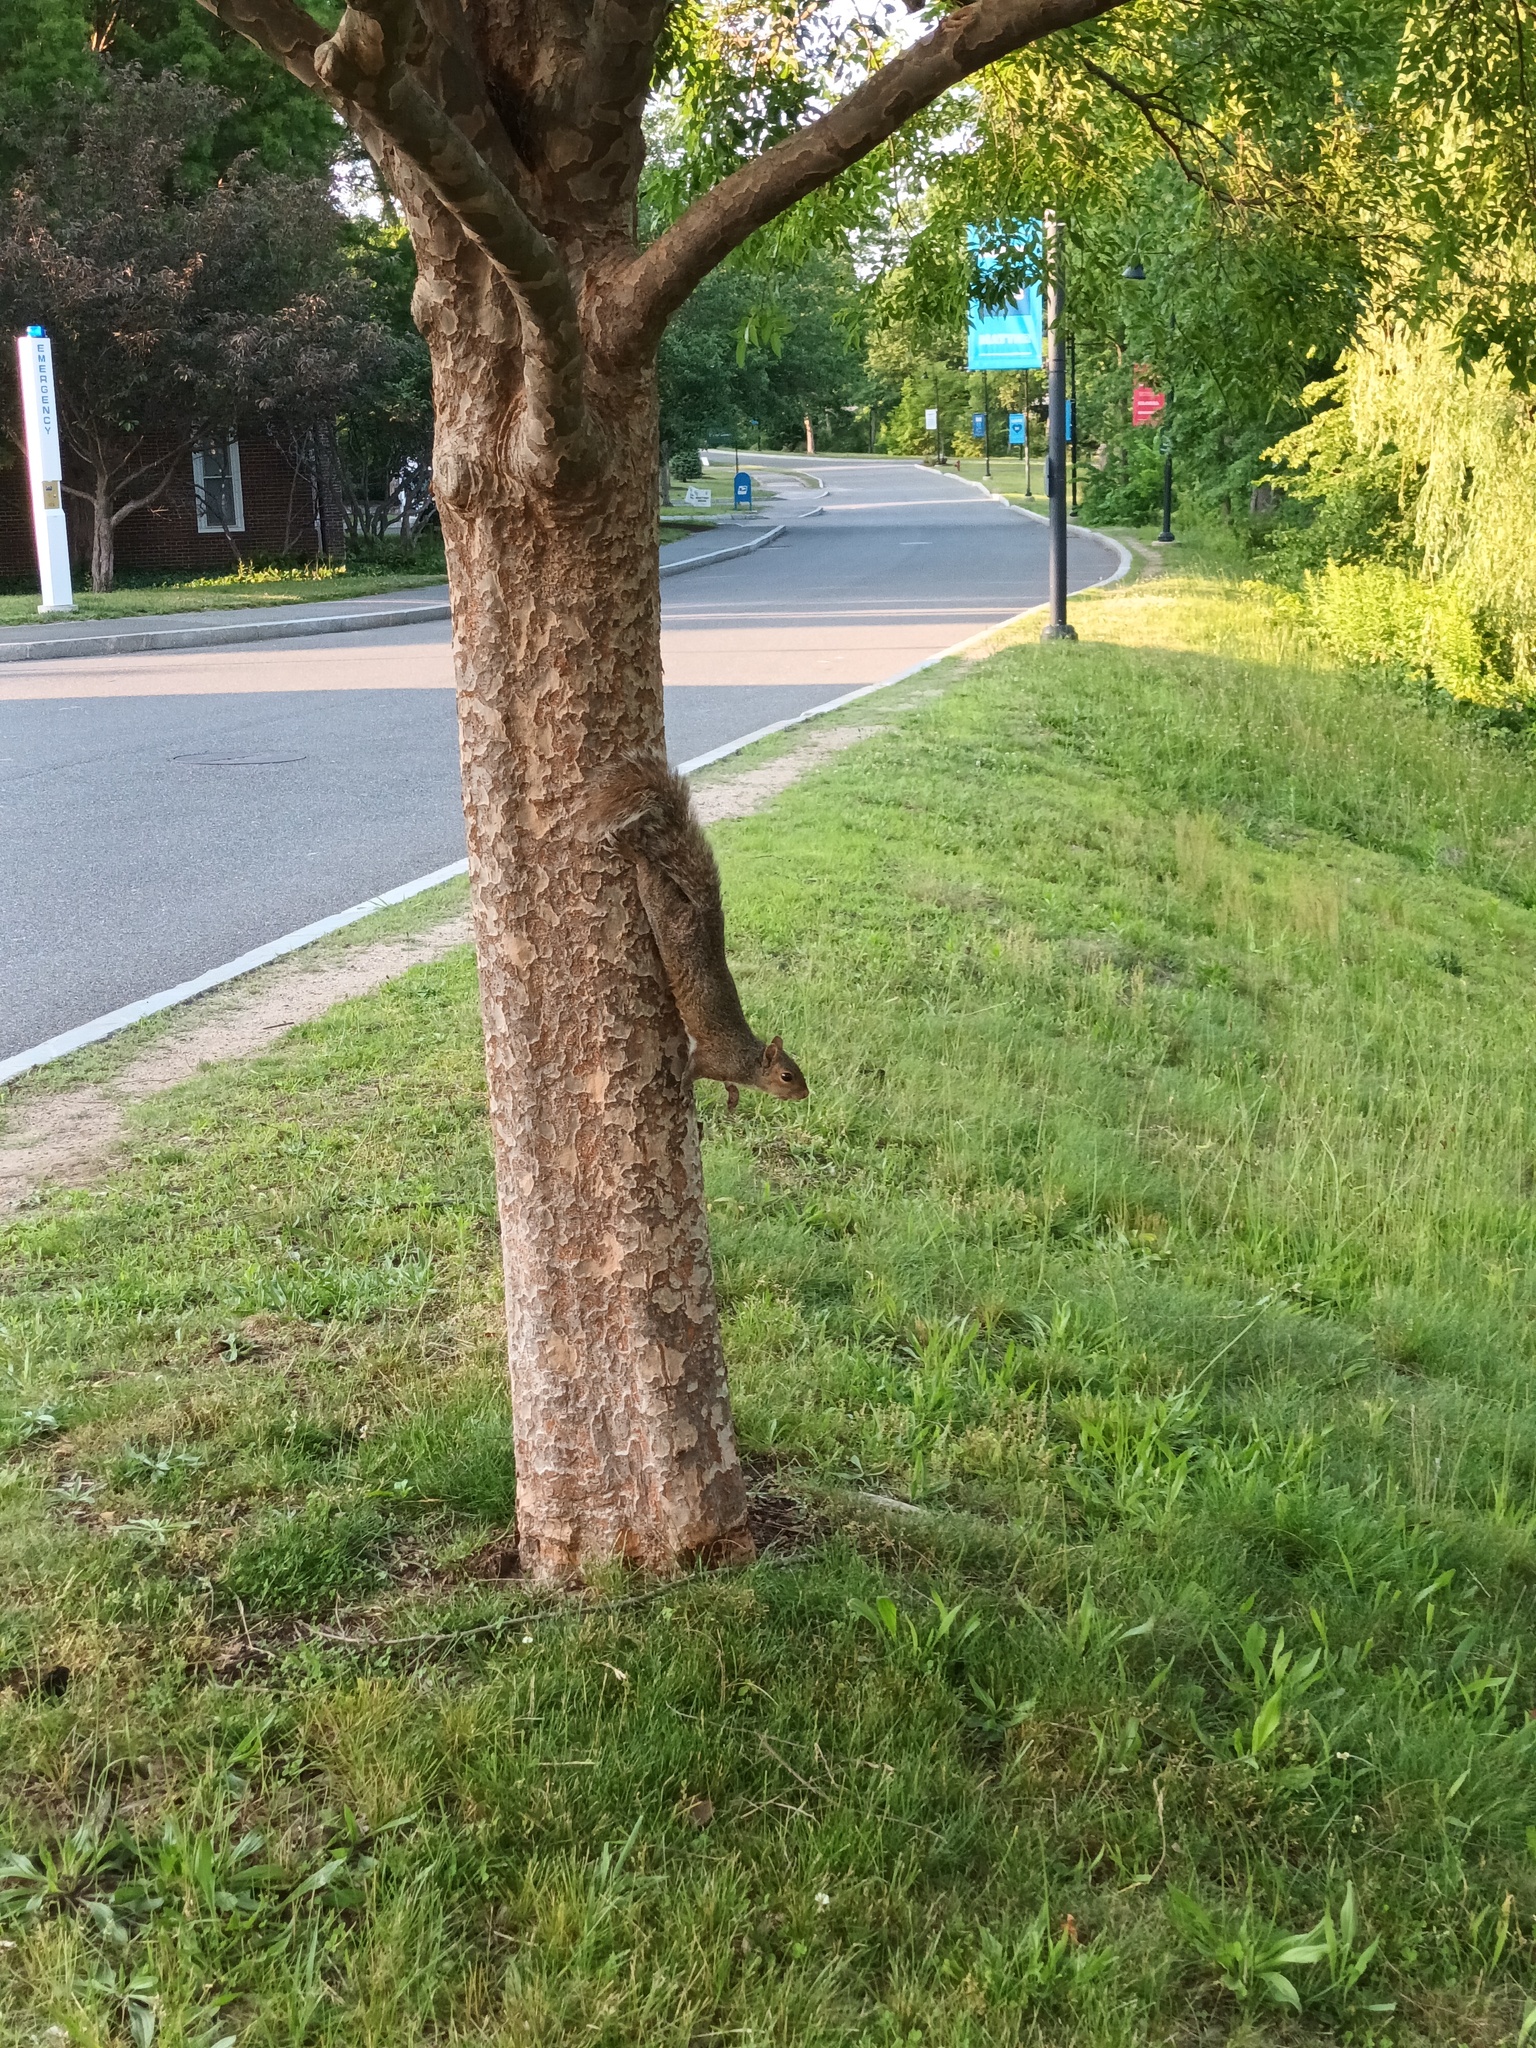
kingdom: Animalia
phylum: Chordata
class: Mammalia
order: Rodentia
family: Sciuridae
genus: Sciurus
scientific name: Sciurus carolinensis
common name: Eastern gray squirrel
